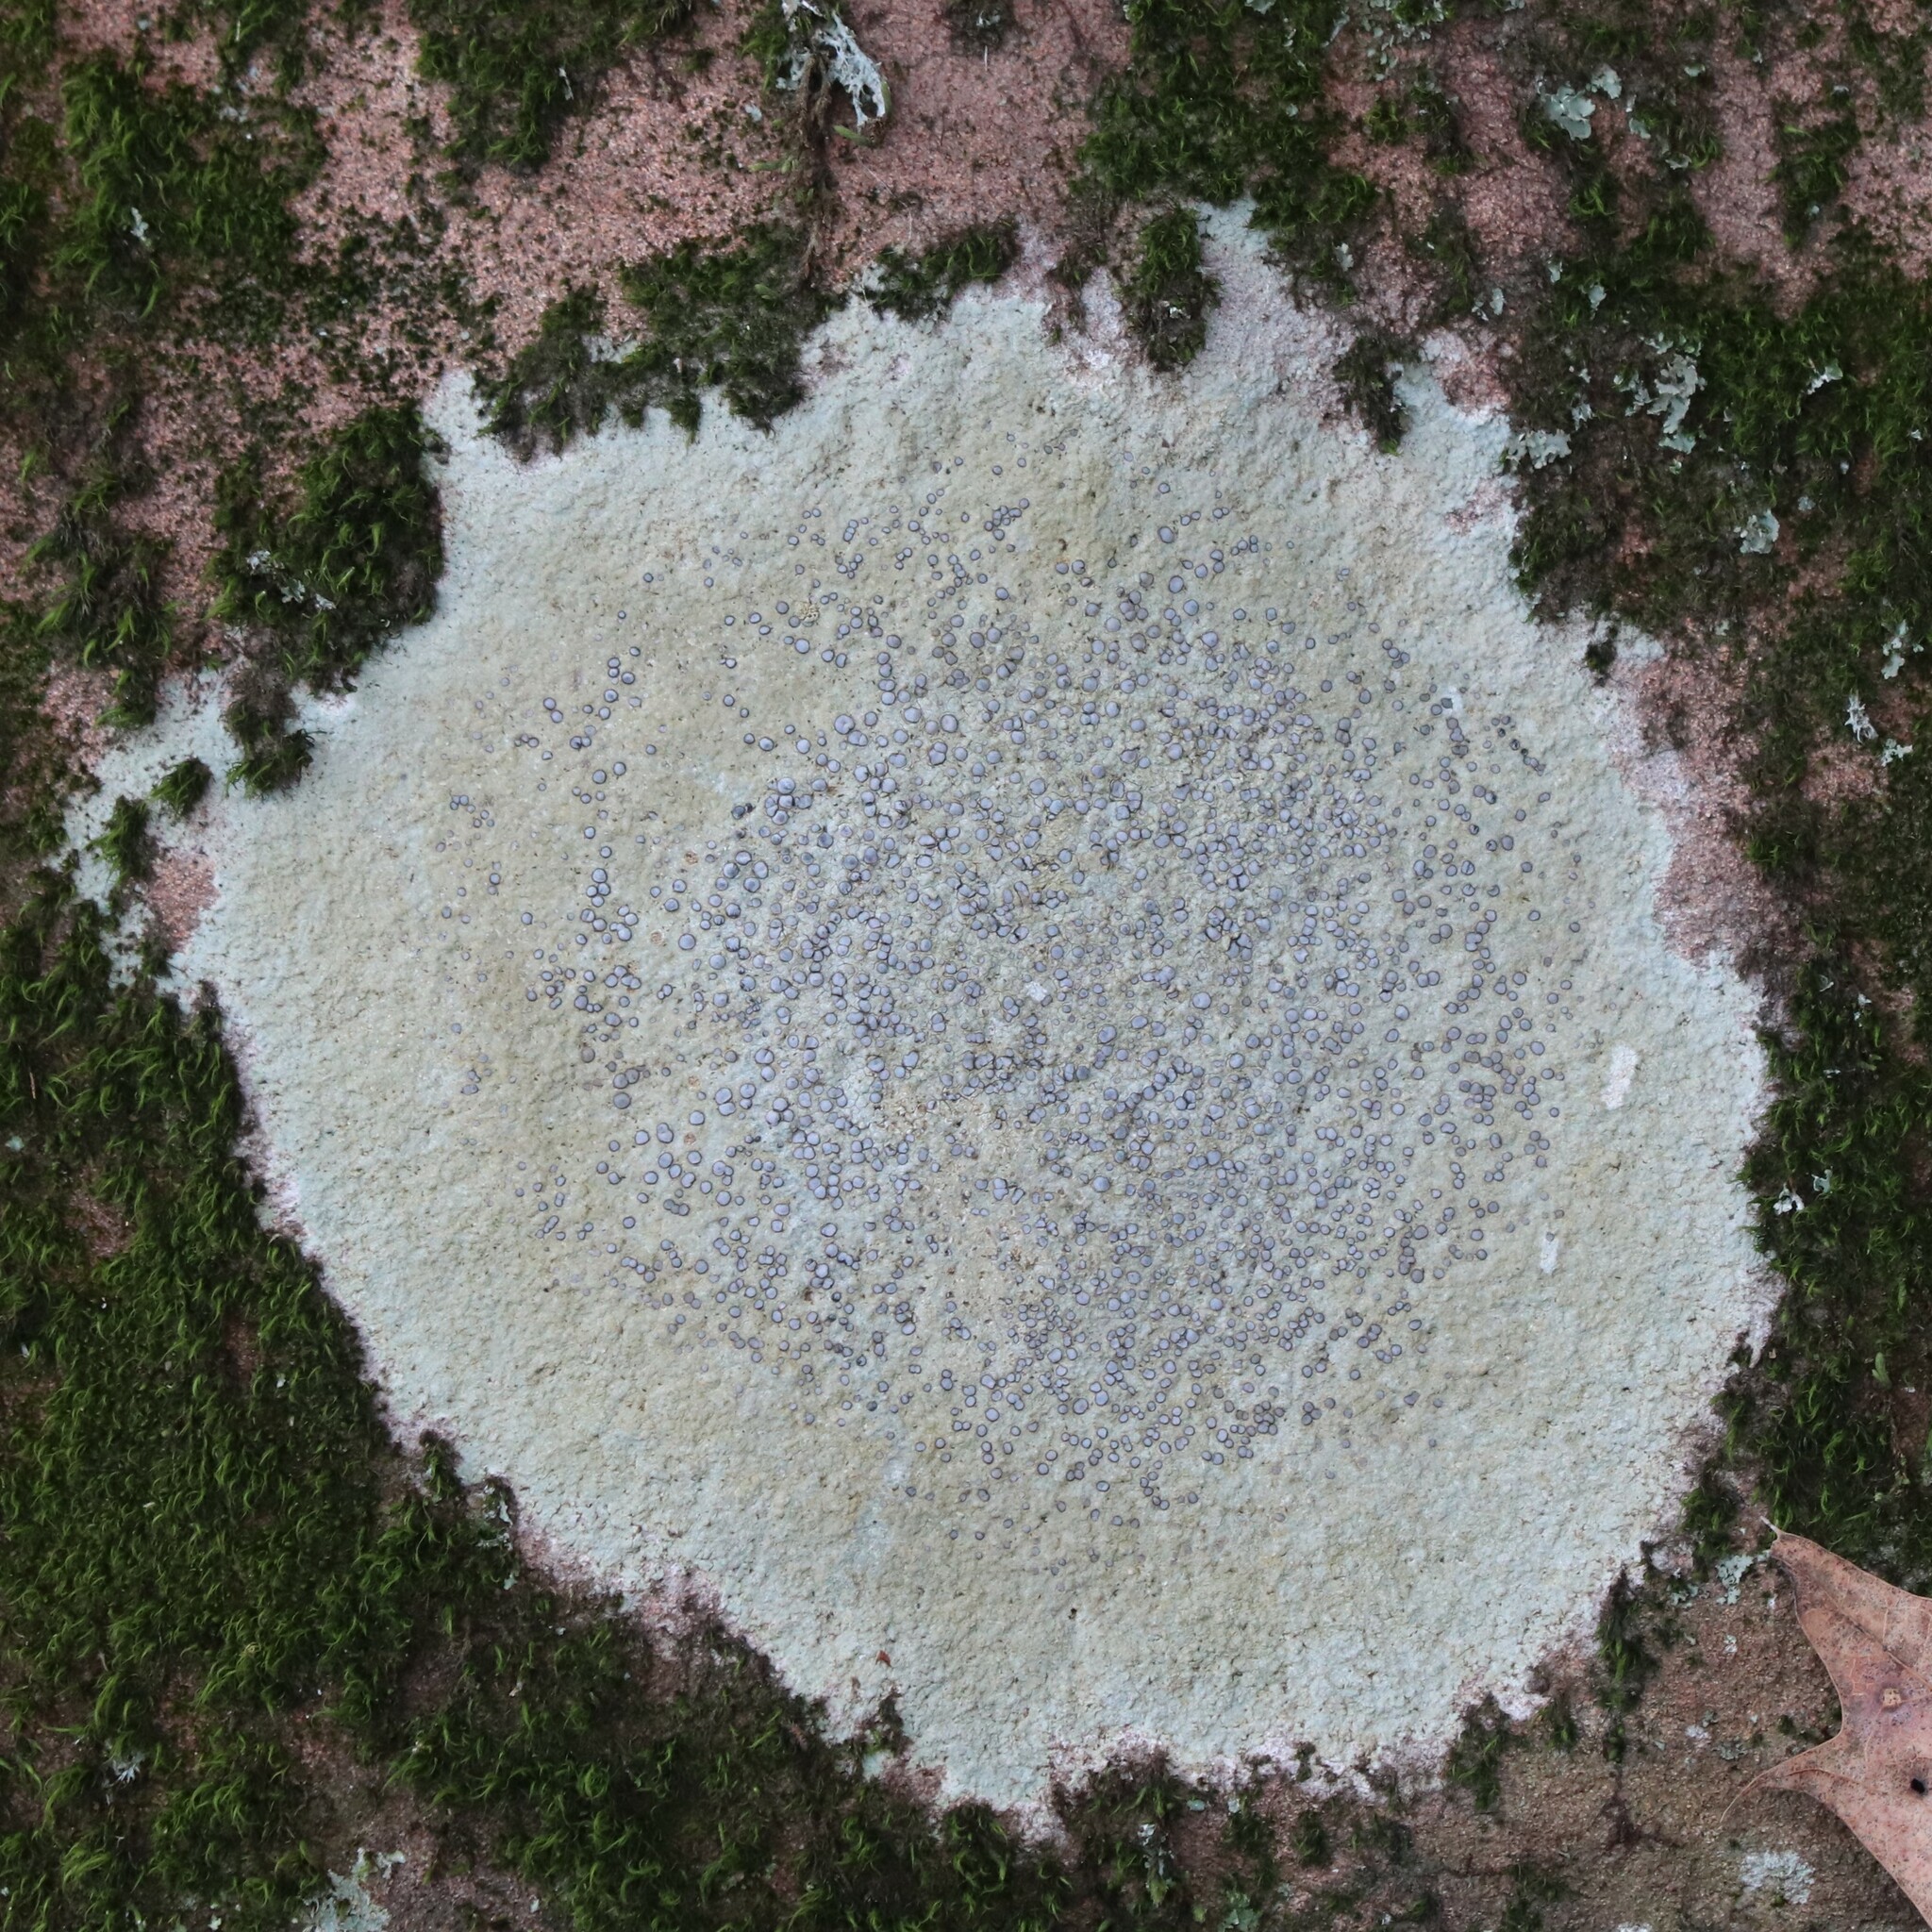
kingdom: Fungi
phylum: Ascomycota
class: Lecanoromycetes
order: Lecideales
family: Lecideaceae
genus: Porpidia
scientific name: Porpidia albocaerulescens
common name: Smokey-eyed boulder lichen
